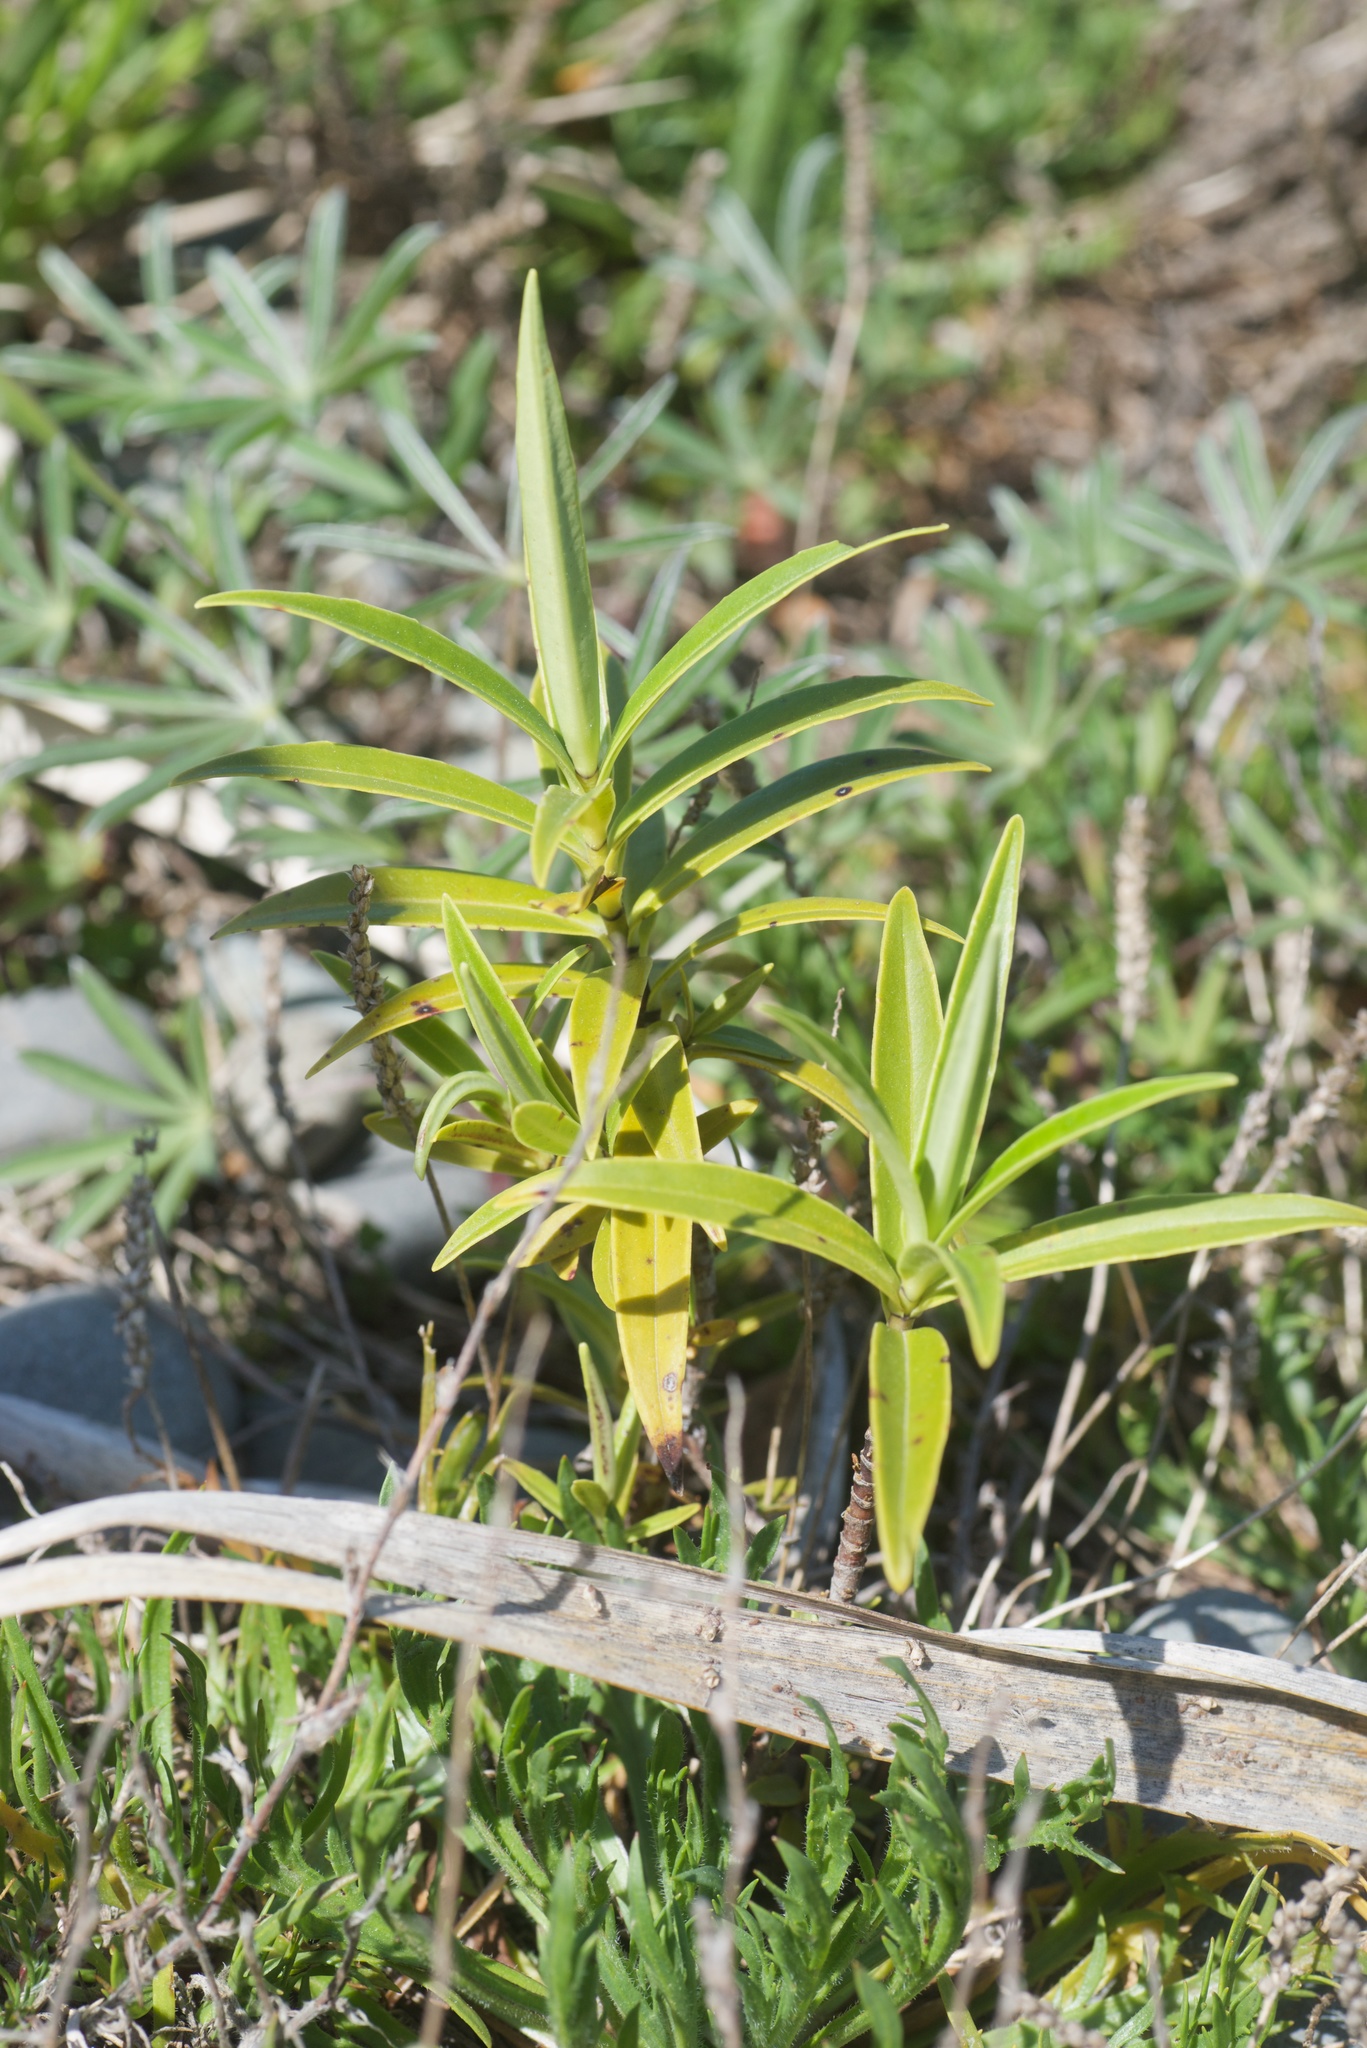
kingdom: Plantae
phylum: Tracheophyta
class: Magnoliopsida
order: Lamiales
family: Plantaginaceae
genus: Veronica
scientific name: Veronica salicifolia
